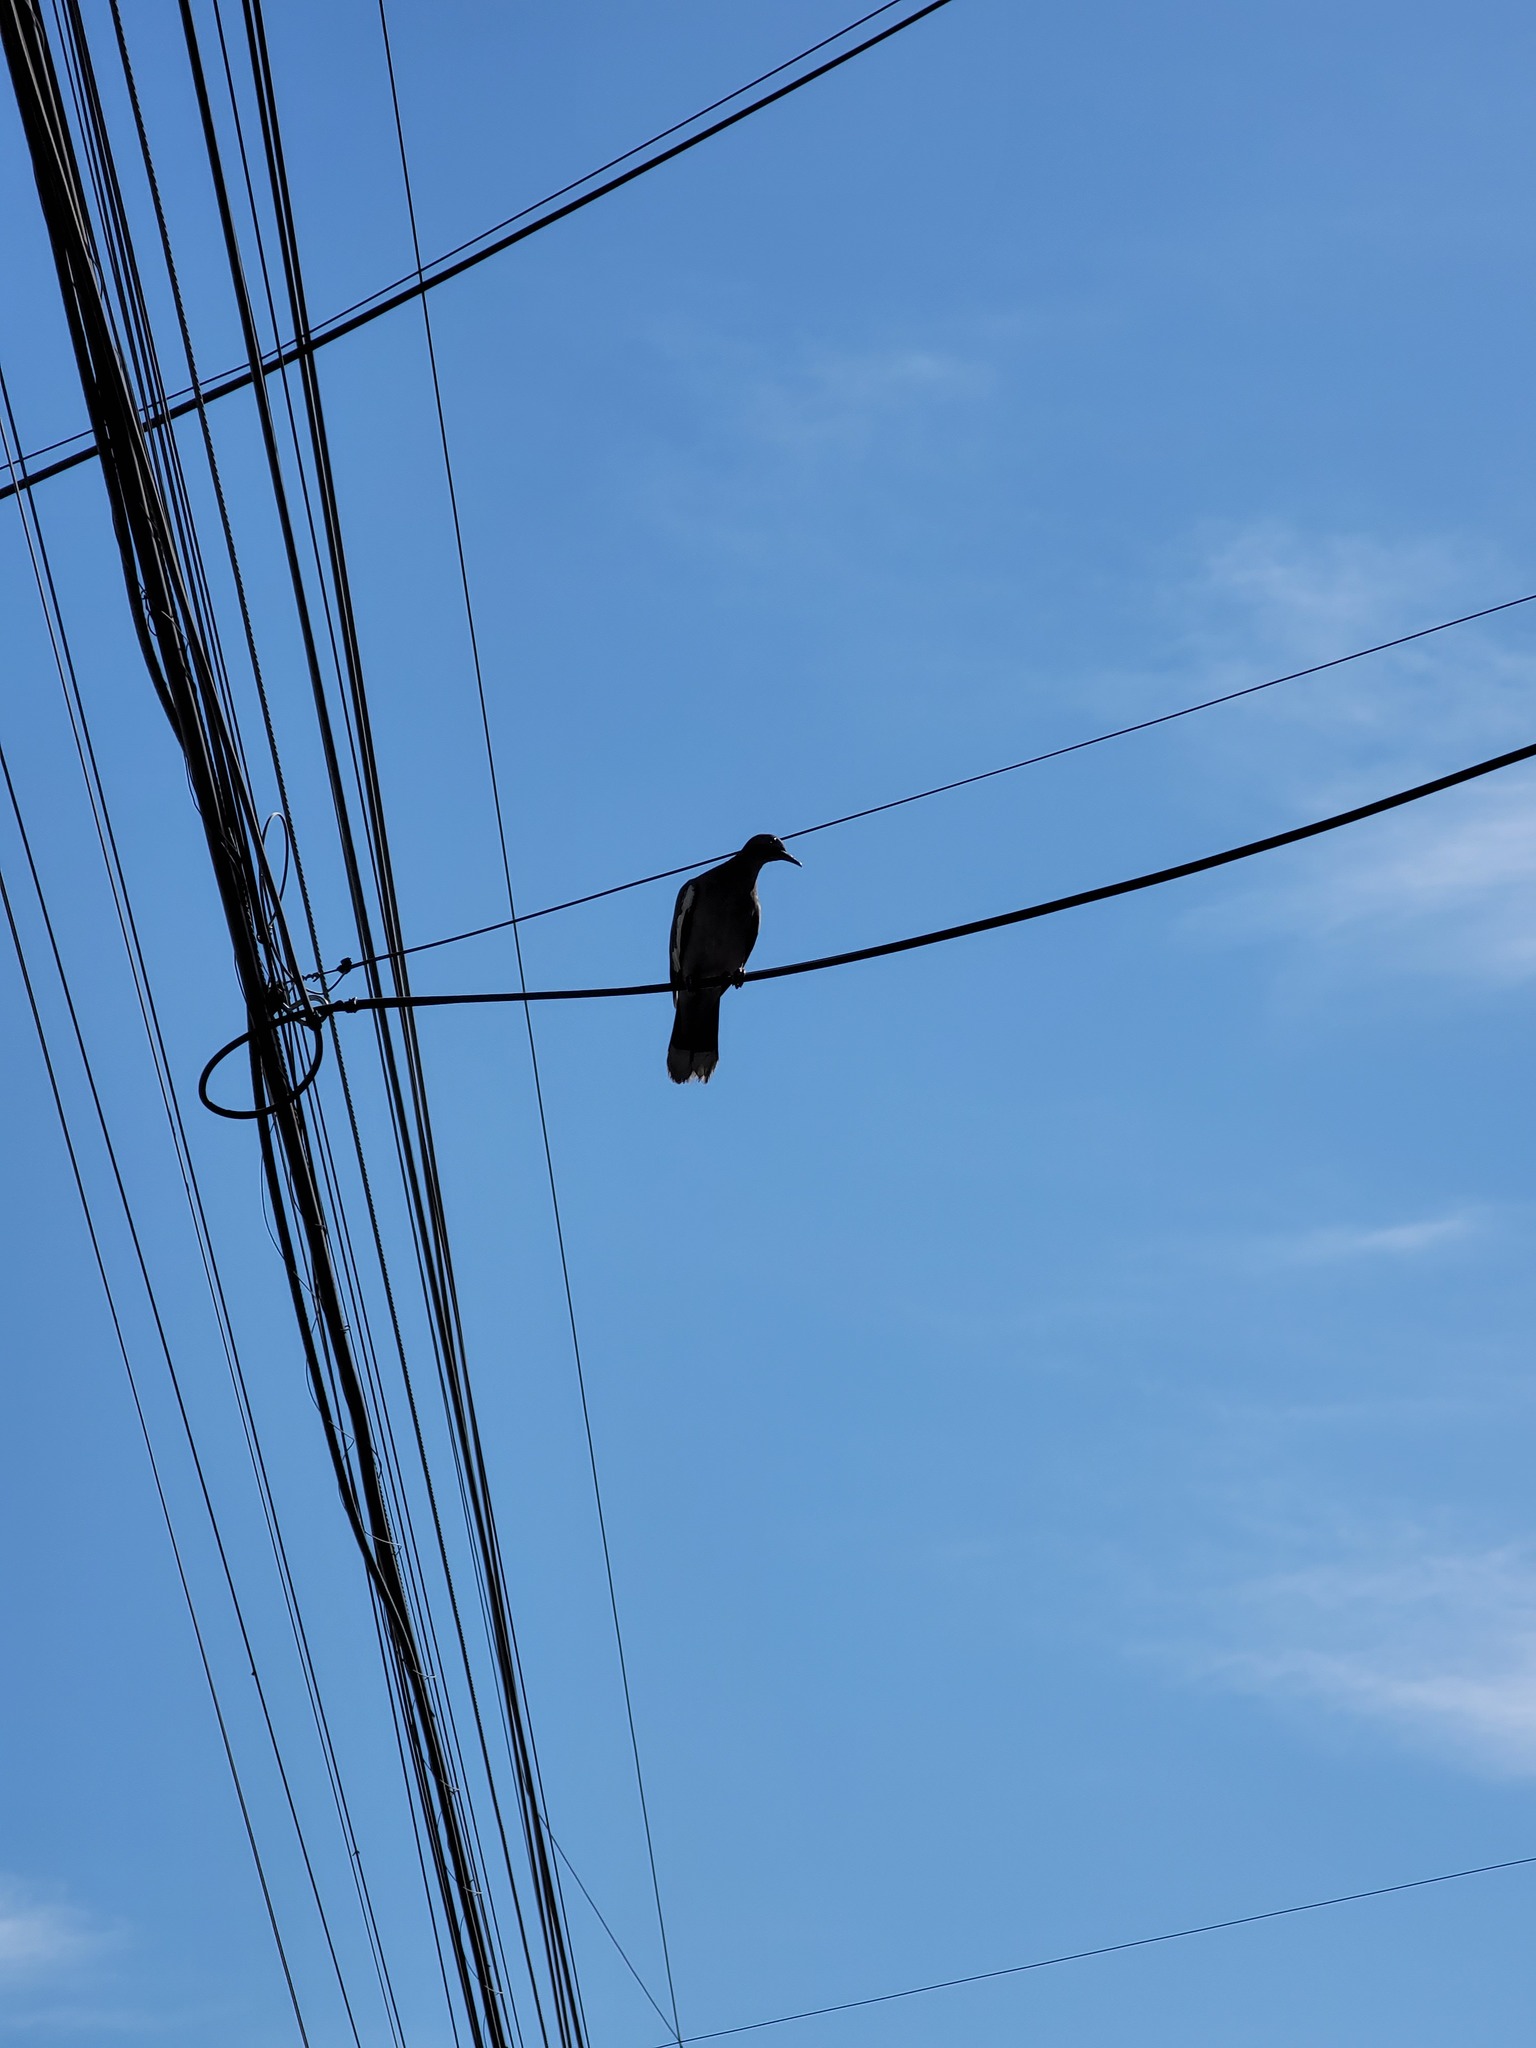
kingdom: Animalia
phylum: Chordata
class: Aves
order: Columbiformes
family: Columbidae
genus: Zenaida
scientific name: Zenaida asiatica
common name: White-winged dove
